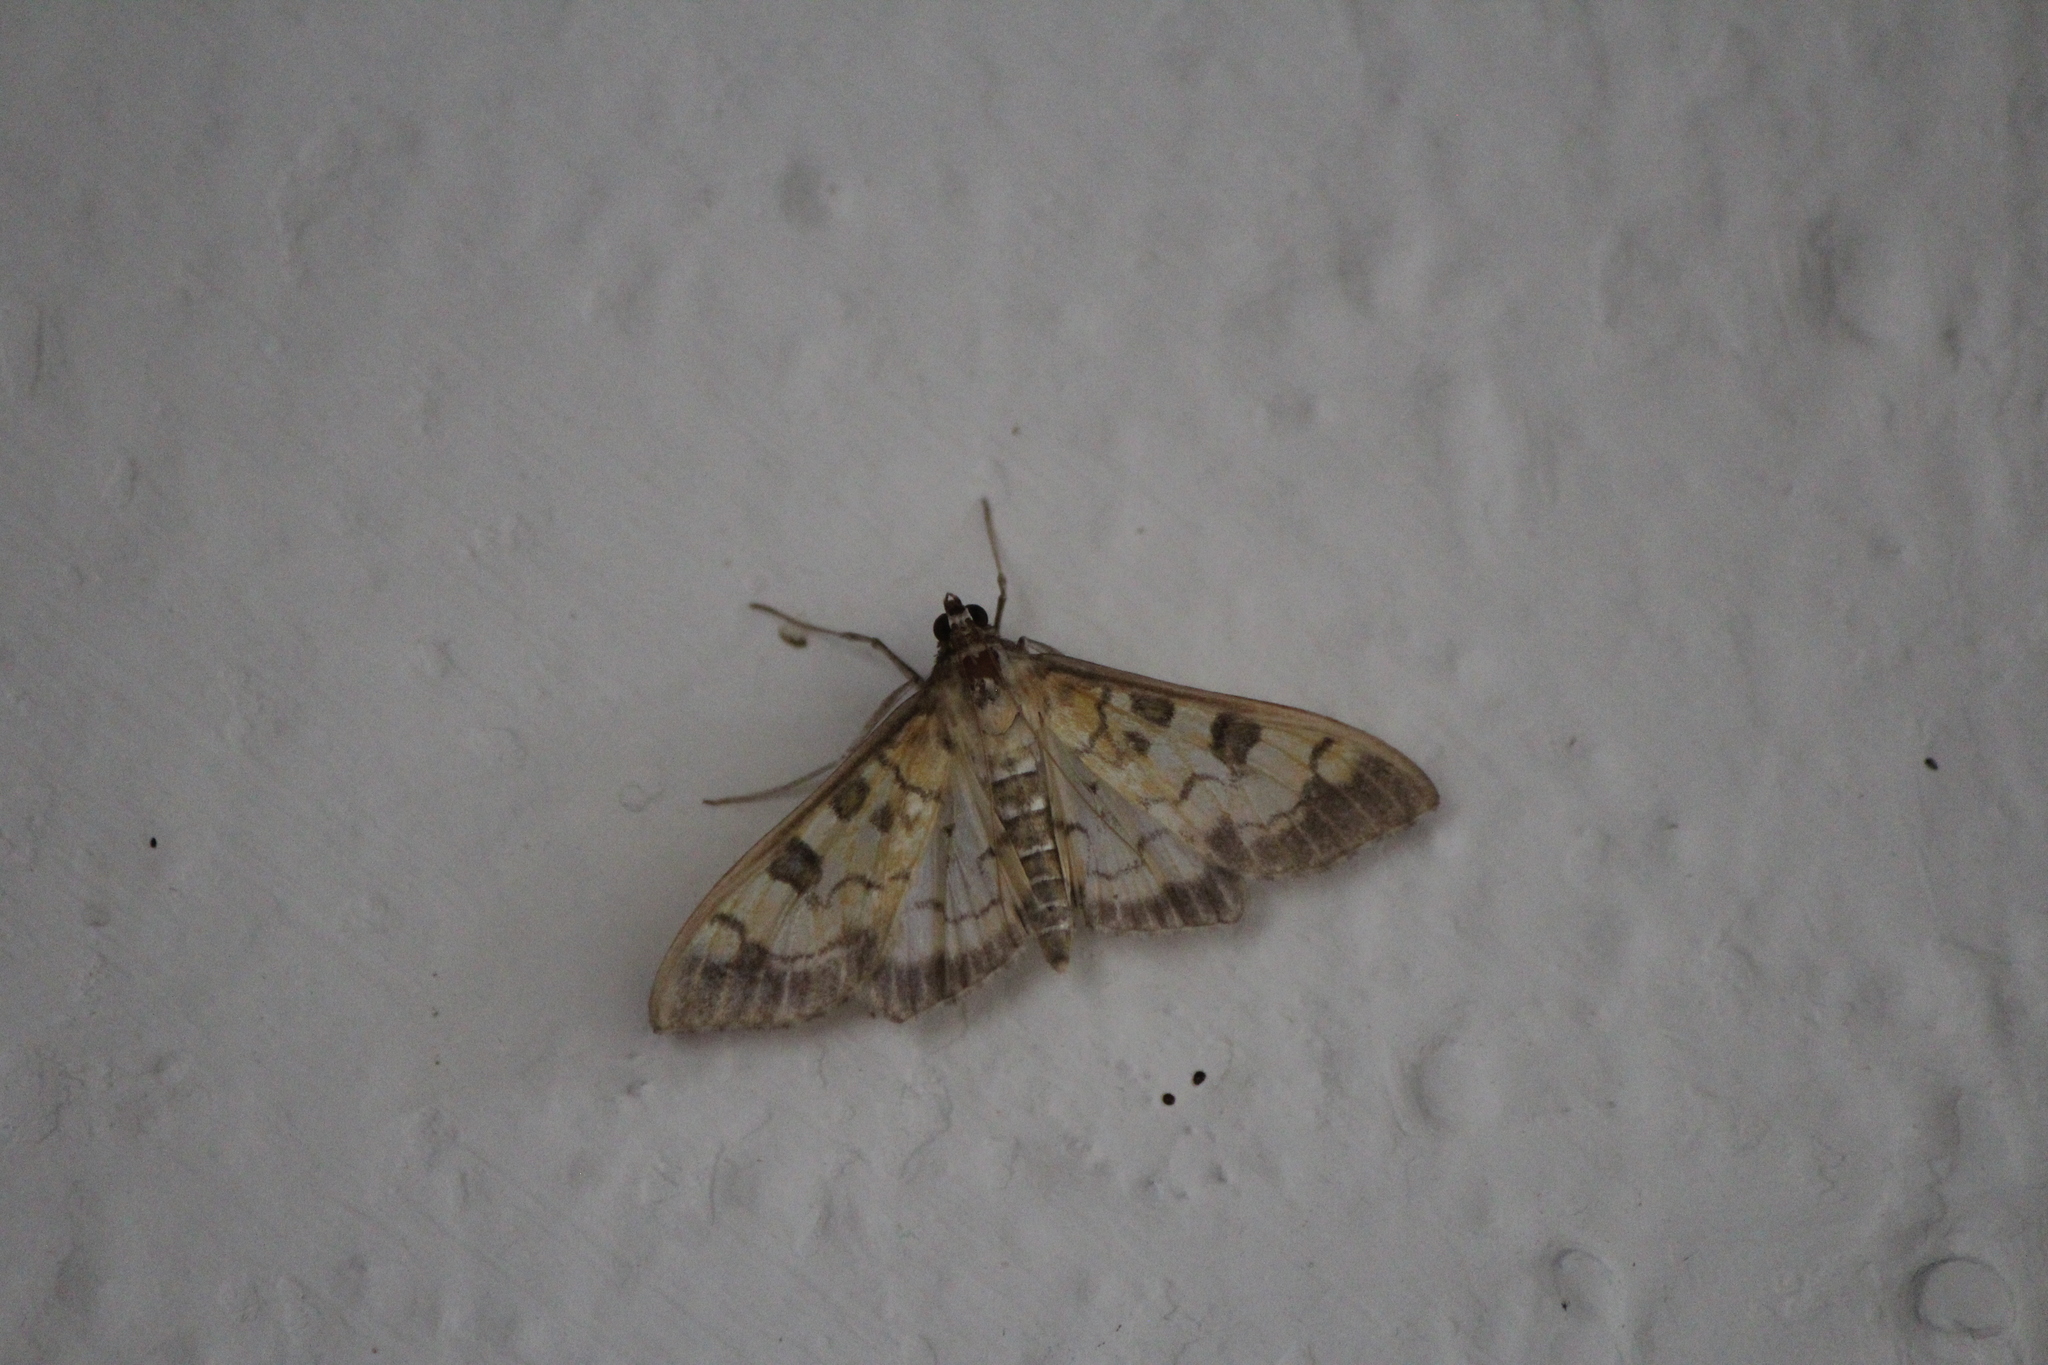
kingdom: Animalia
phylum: Arthropoda
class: Insecta
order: Lepidoptera
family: Crambidae
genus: Mimorista
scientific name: Mimorista subcostalis
